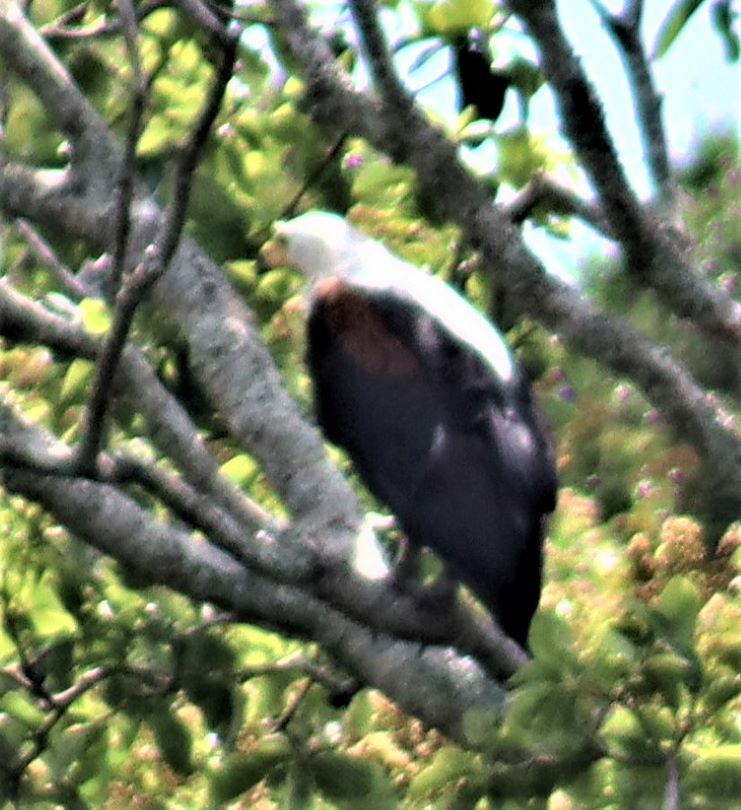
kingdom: Animalia
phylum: Chordata
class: Aves
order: Accipitriformes
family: Accipitridae
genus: Haliaeetus
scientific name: Haliaeetus vocifer
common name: African fish eagle
